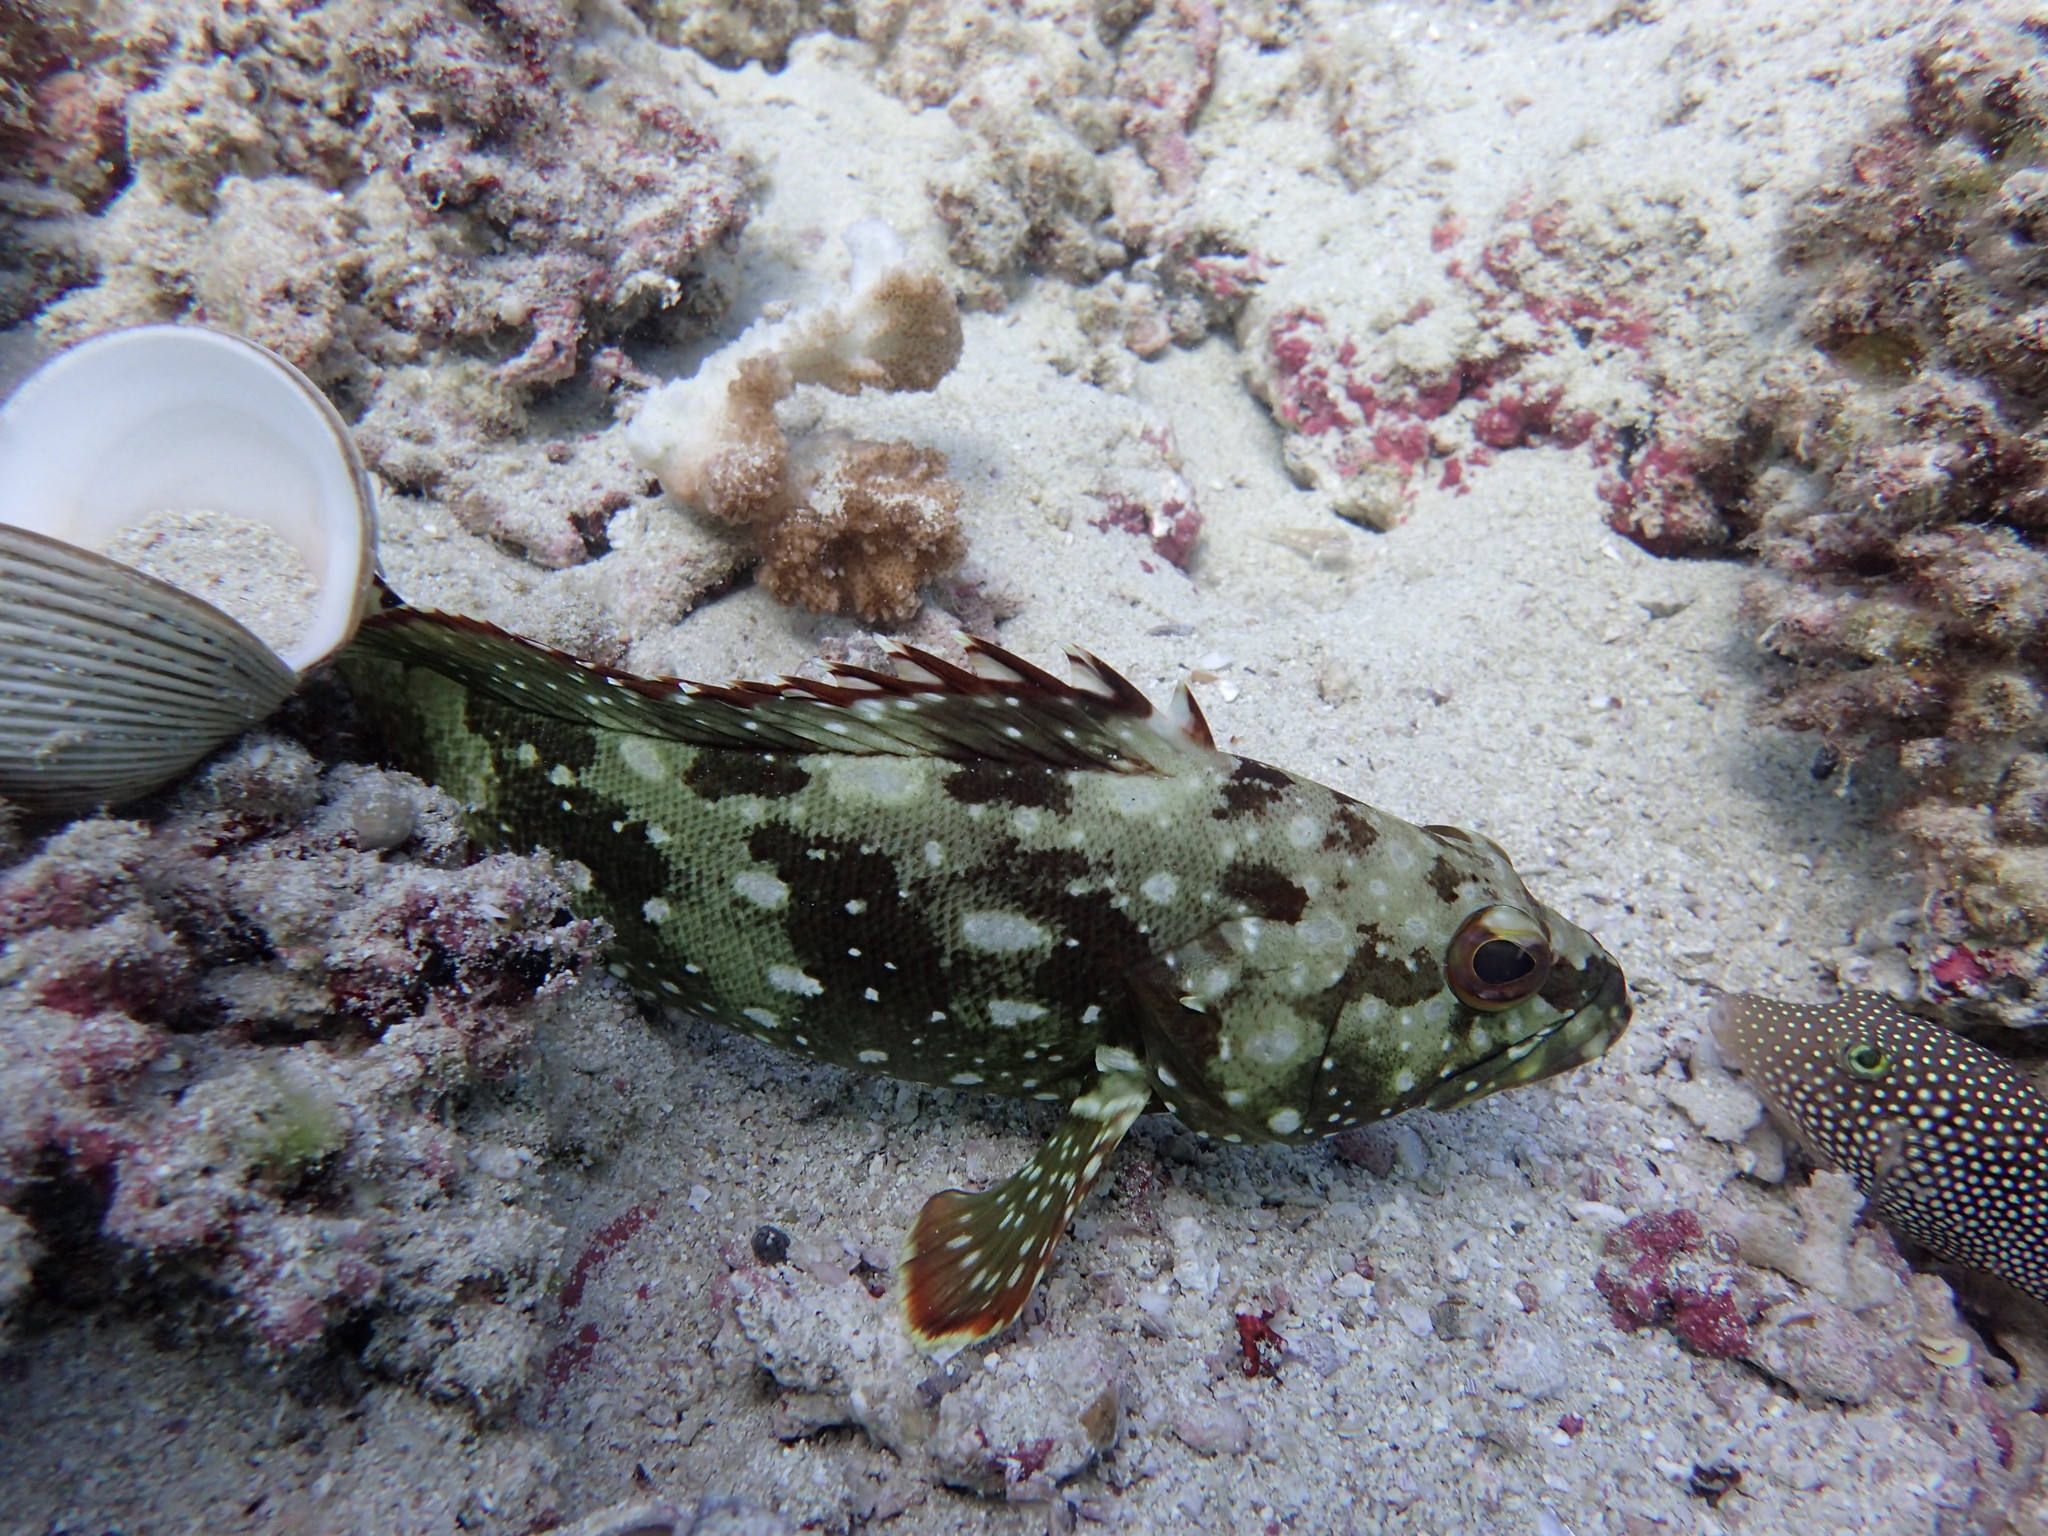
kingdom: Animalia
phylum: Chordata
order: Perciformes
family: Serranidae
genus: Epinephelus
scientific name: Epinephelus labriformis
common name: Flag cabrilla
